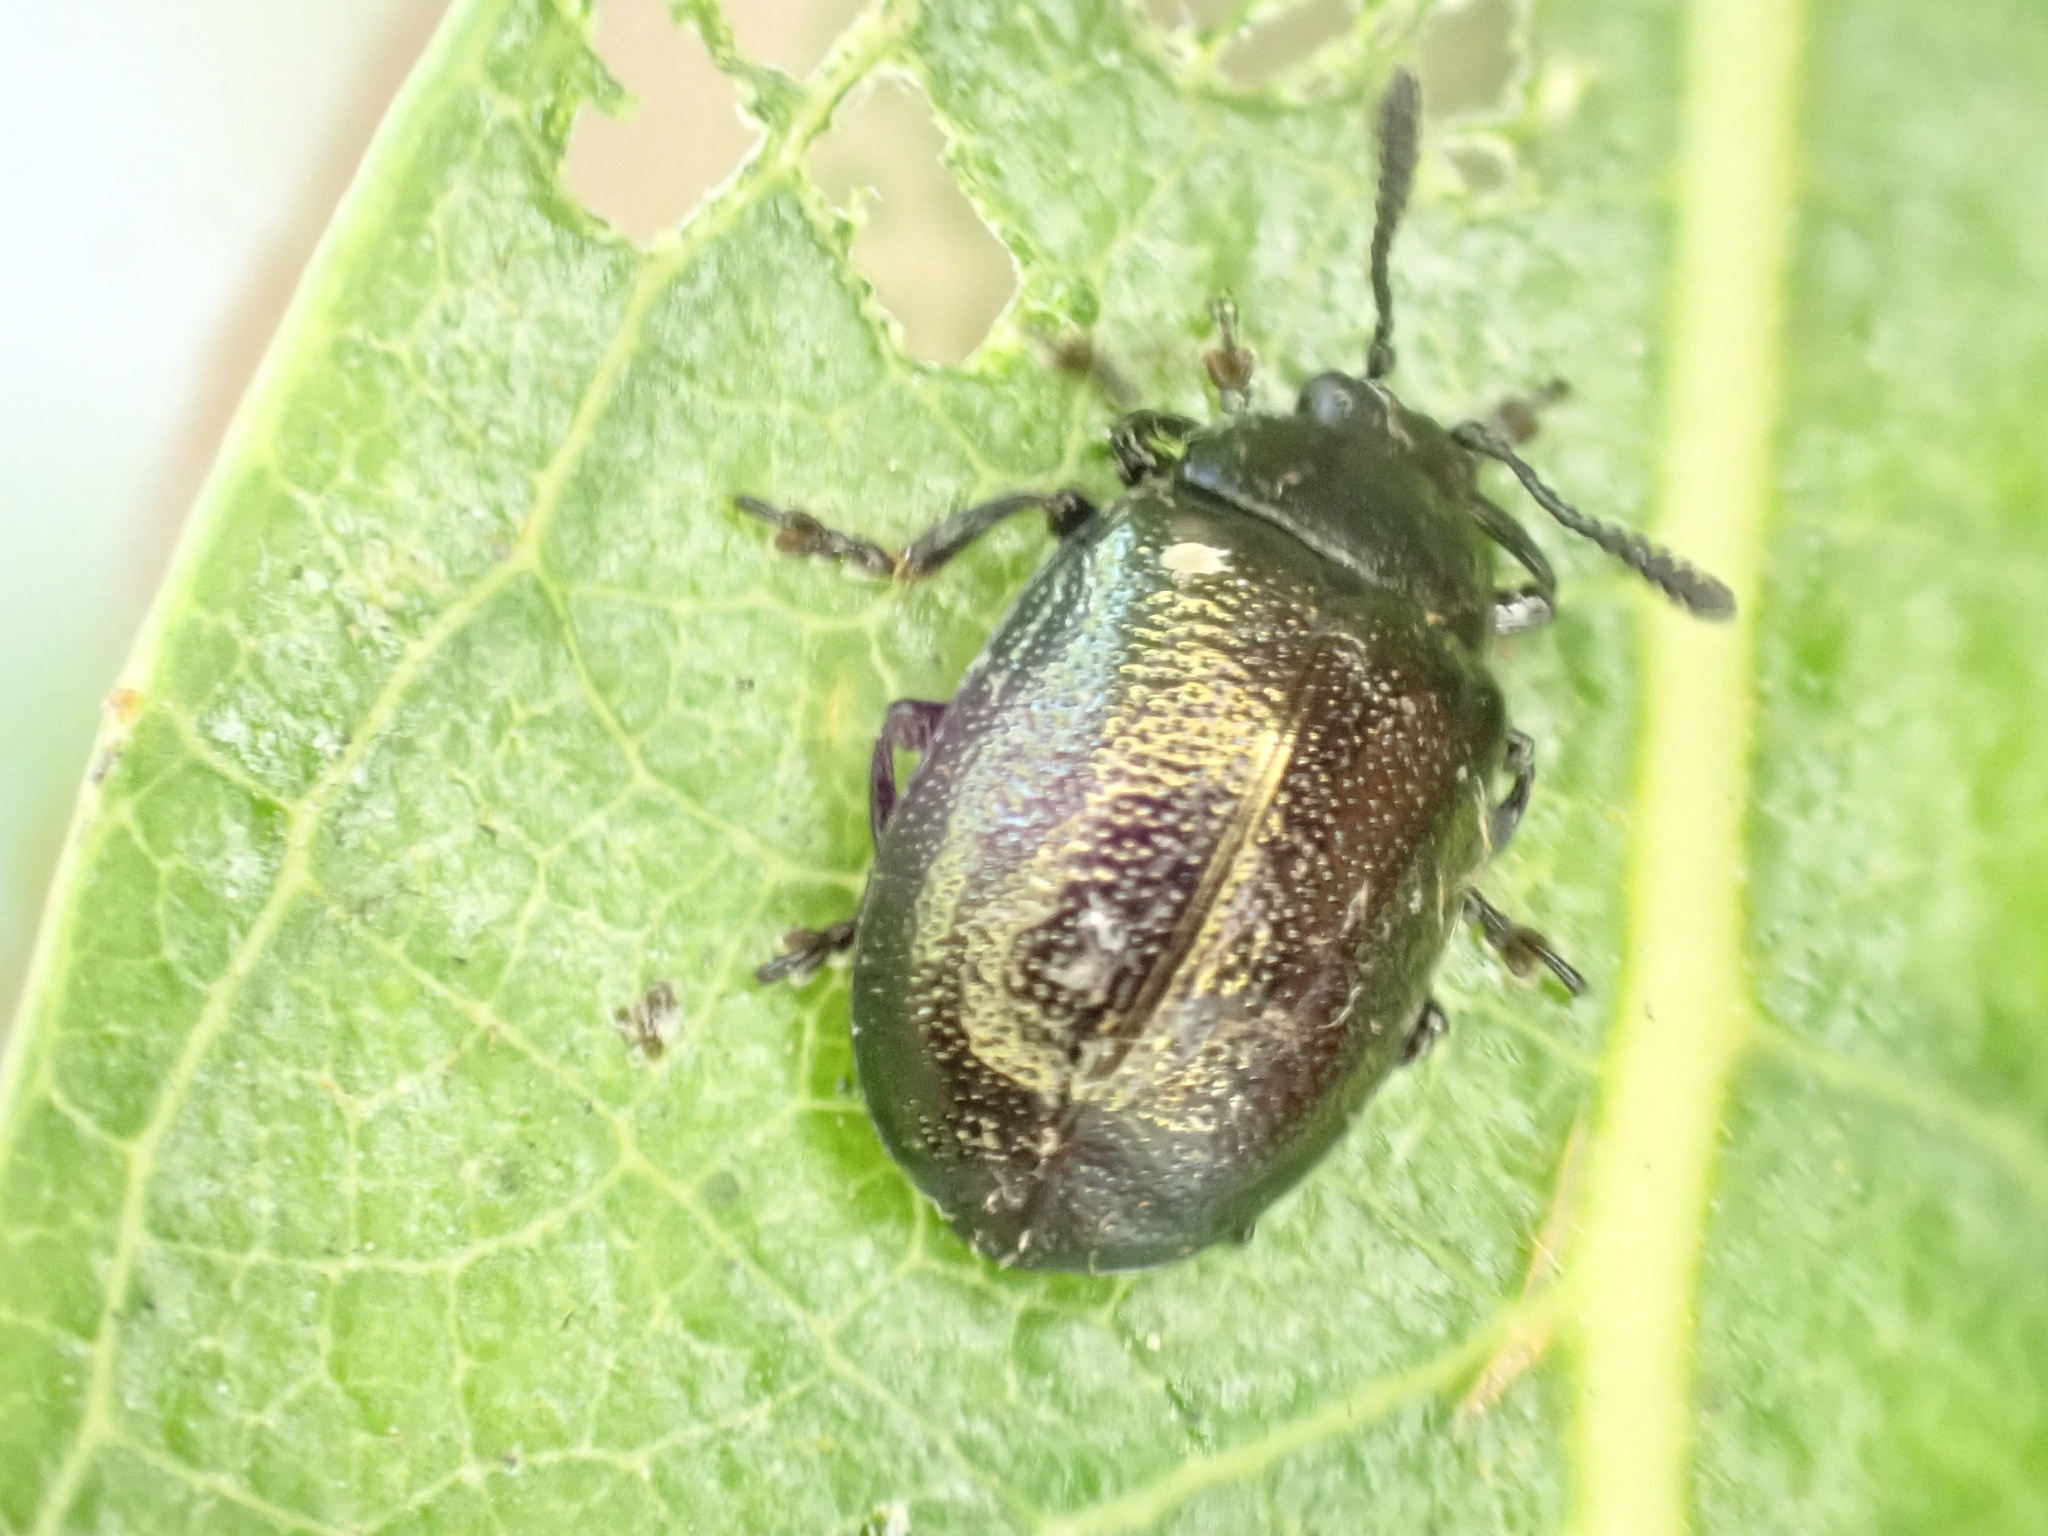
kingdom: Animalia
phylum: Arthropoda
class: Insecta
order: Coleoptera
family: Chrysomelidae
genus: Plagiodera
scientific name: Plagiodera californica
